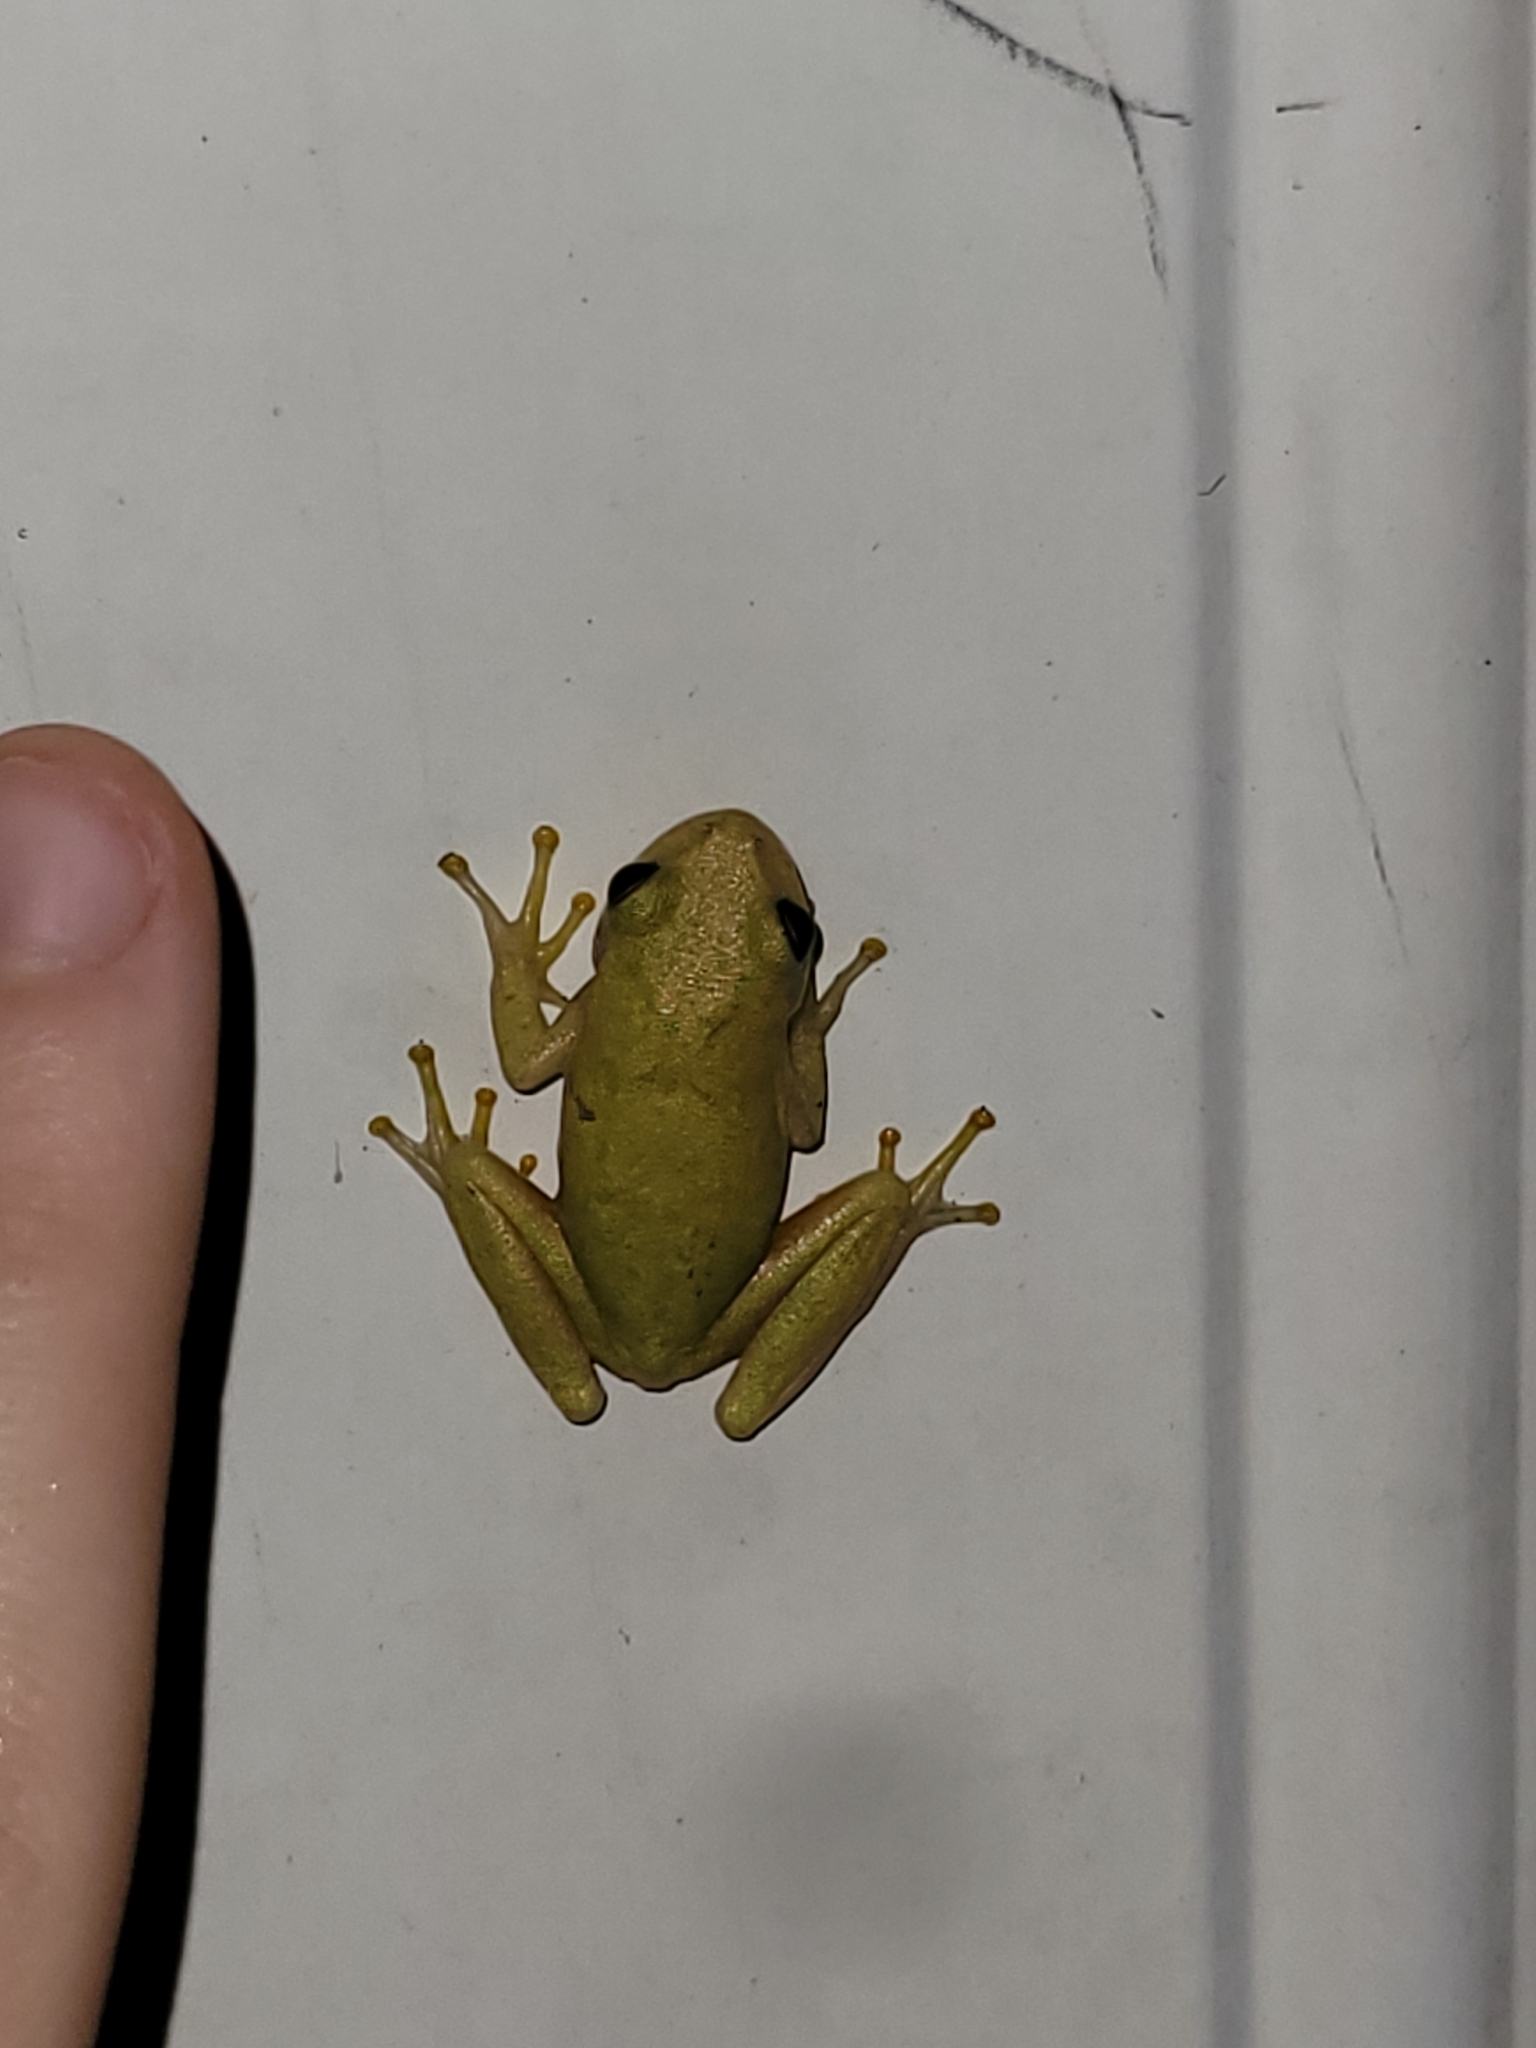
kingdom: Animalia
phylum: Chordata
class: Amphibia
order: Anura
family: Hylidae
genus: Dryophytes
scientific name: Dryophytes squirellus
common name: Squirrel treefrog
